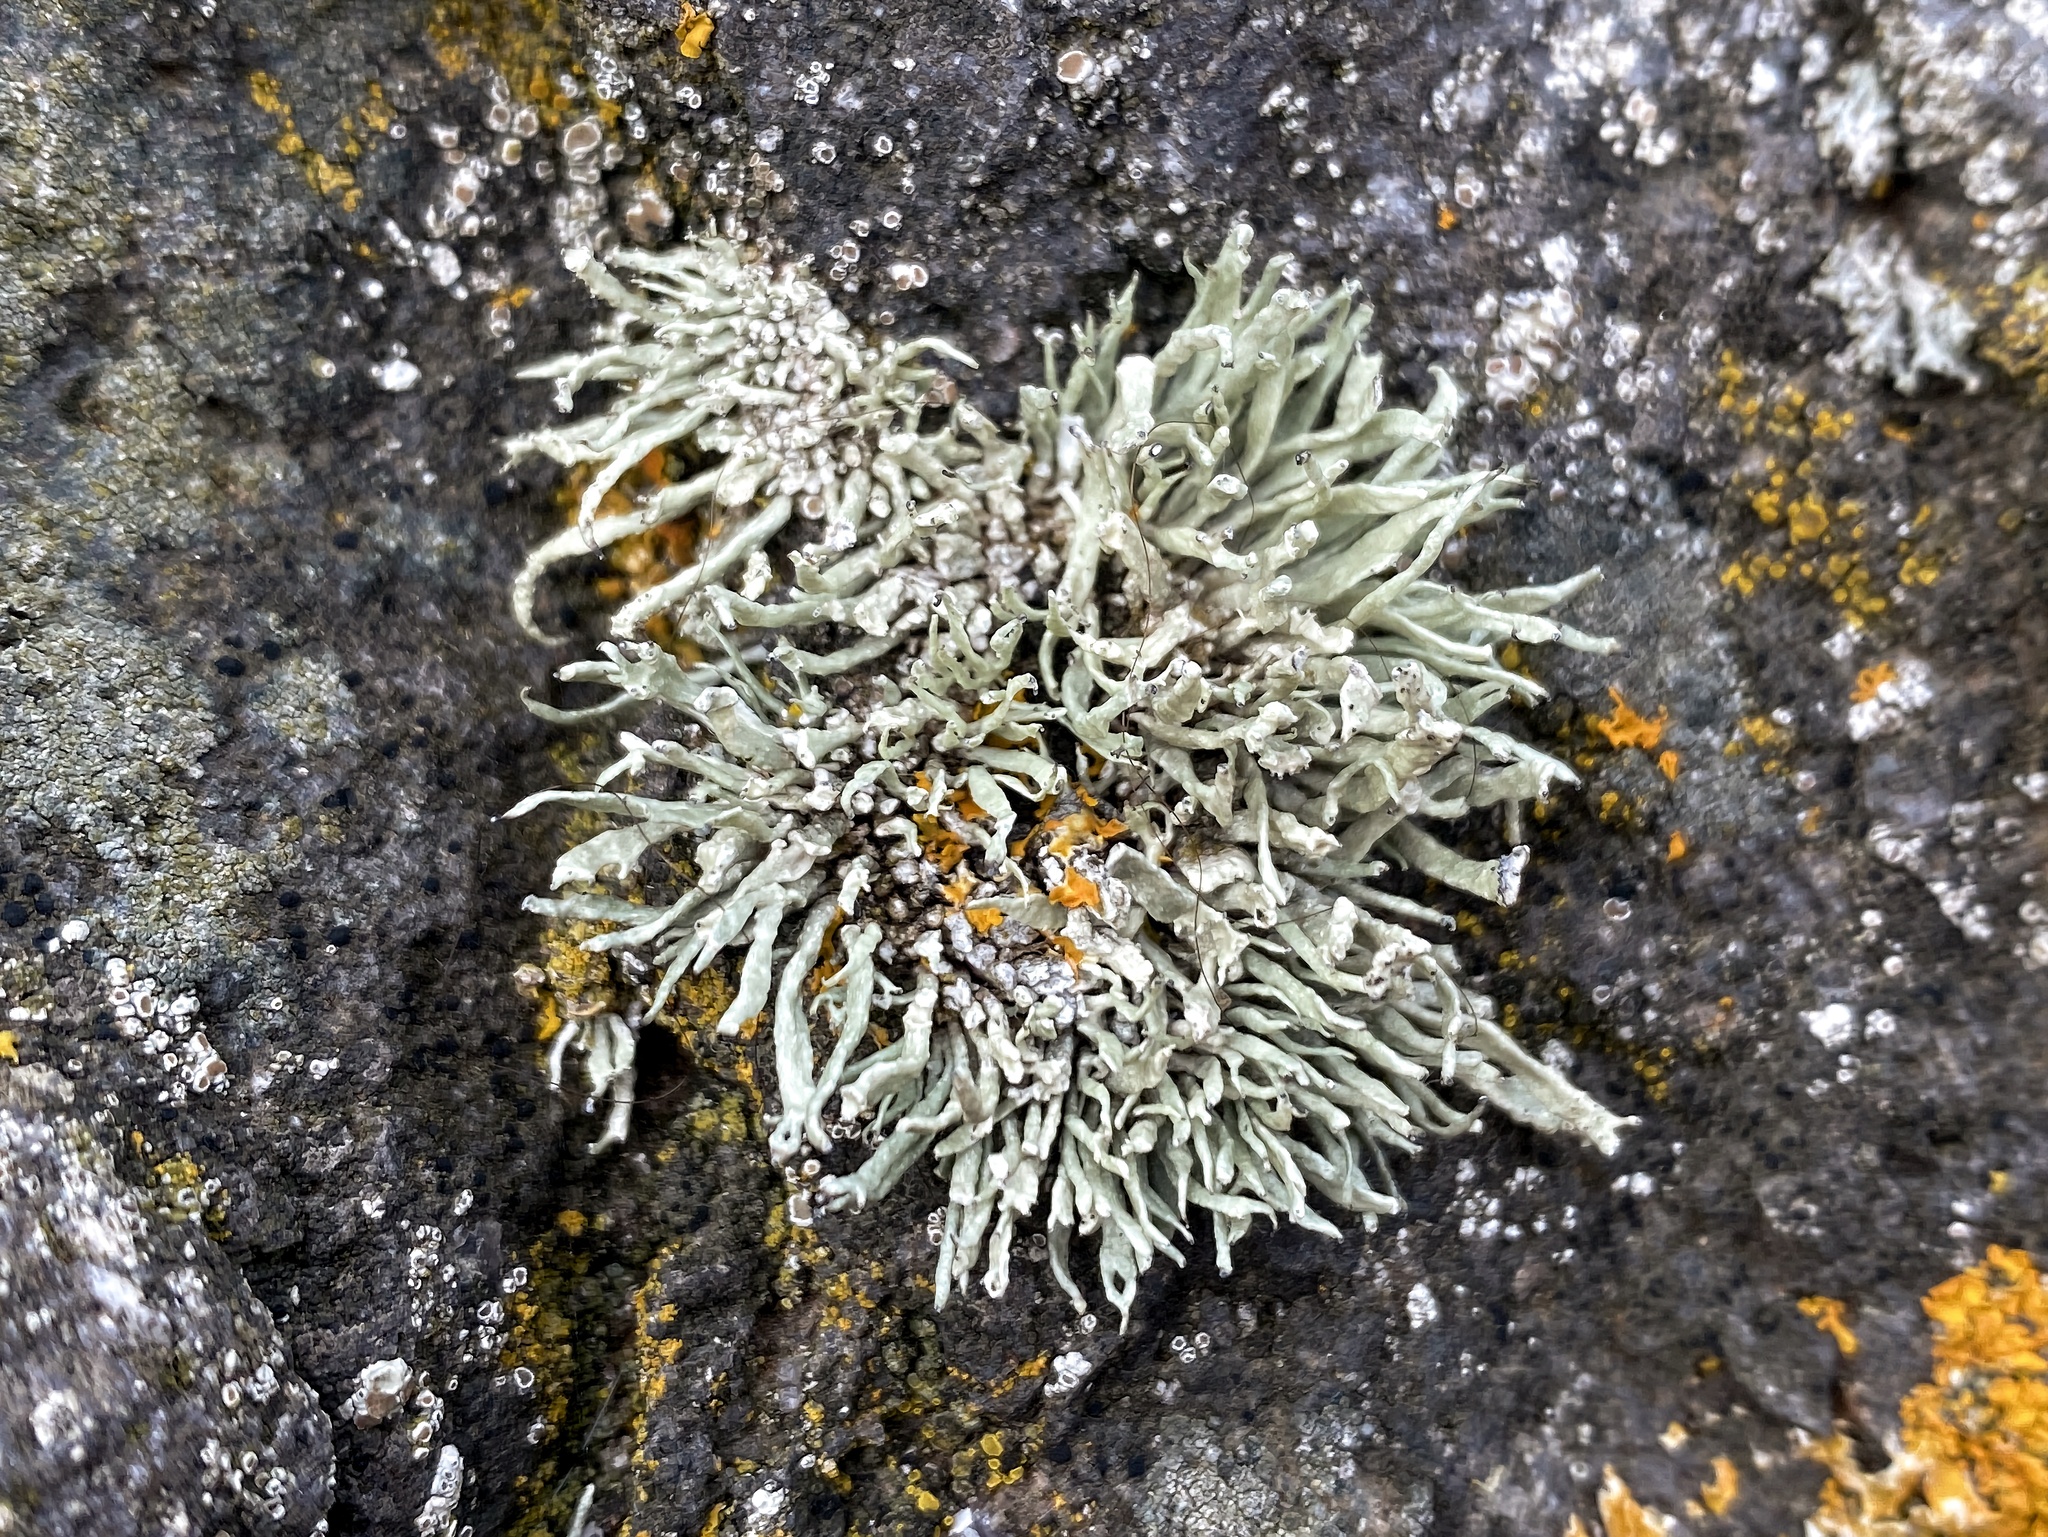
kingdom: Fungi
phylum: Ascomycota
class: Lecanoromycetes
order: Lecanorales
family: Ramalinaceae
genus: Ramalina
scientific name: Ramalina siliquosa
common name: Sea ivory
